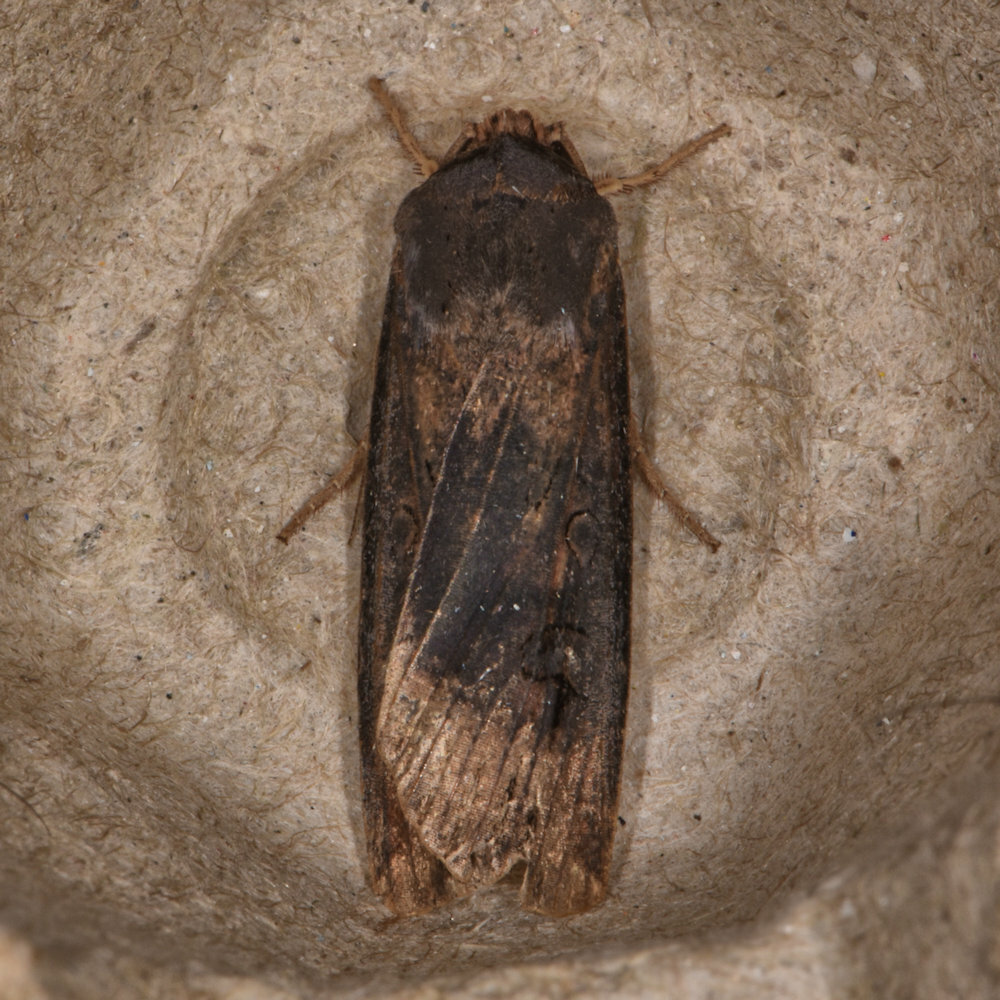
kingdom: Animalia
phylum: Arthropoda
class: Insecta
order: Lepidoptera
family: Noctuidae
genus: Agrotis
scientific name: Agrotis ipsilon
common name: Dark sword-grass
